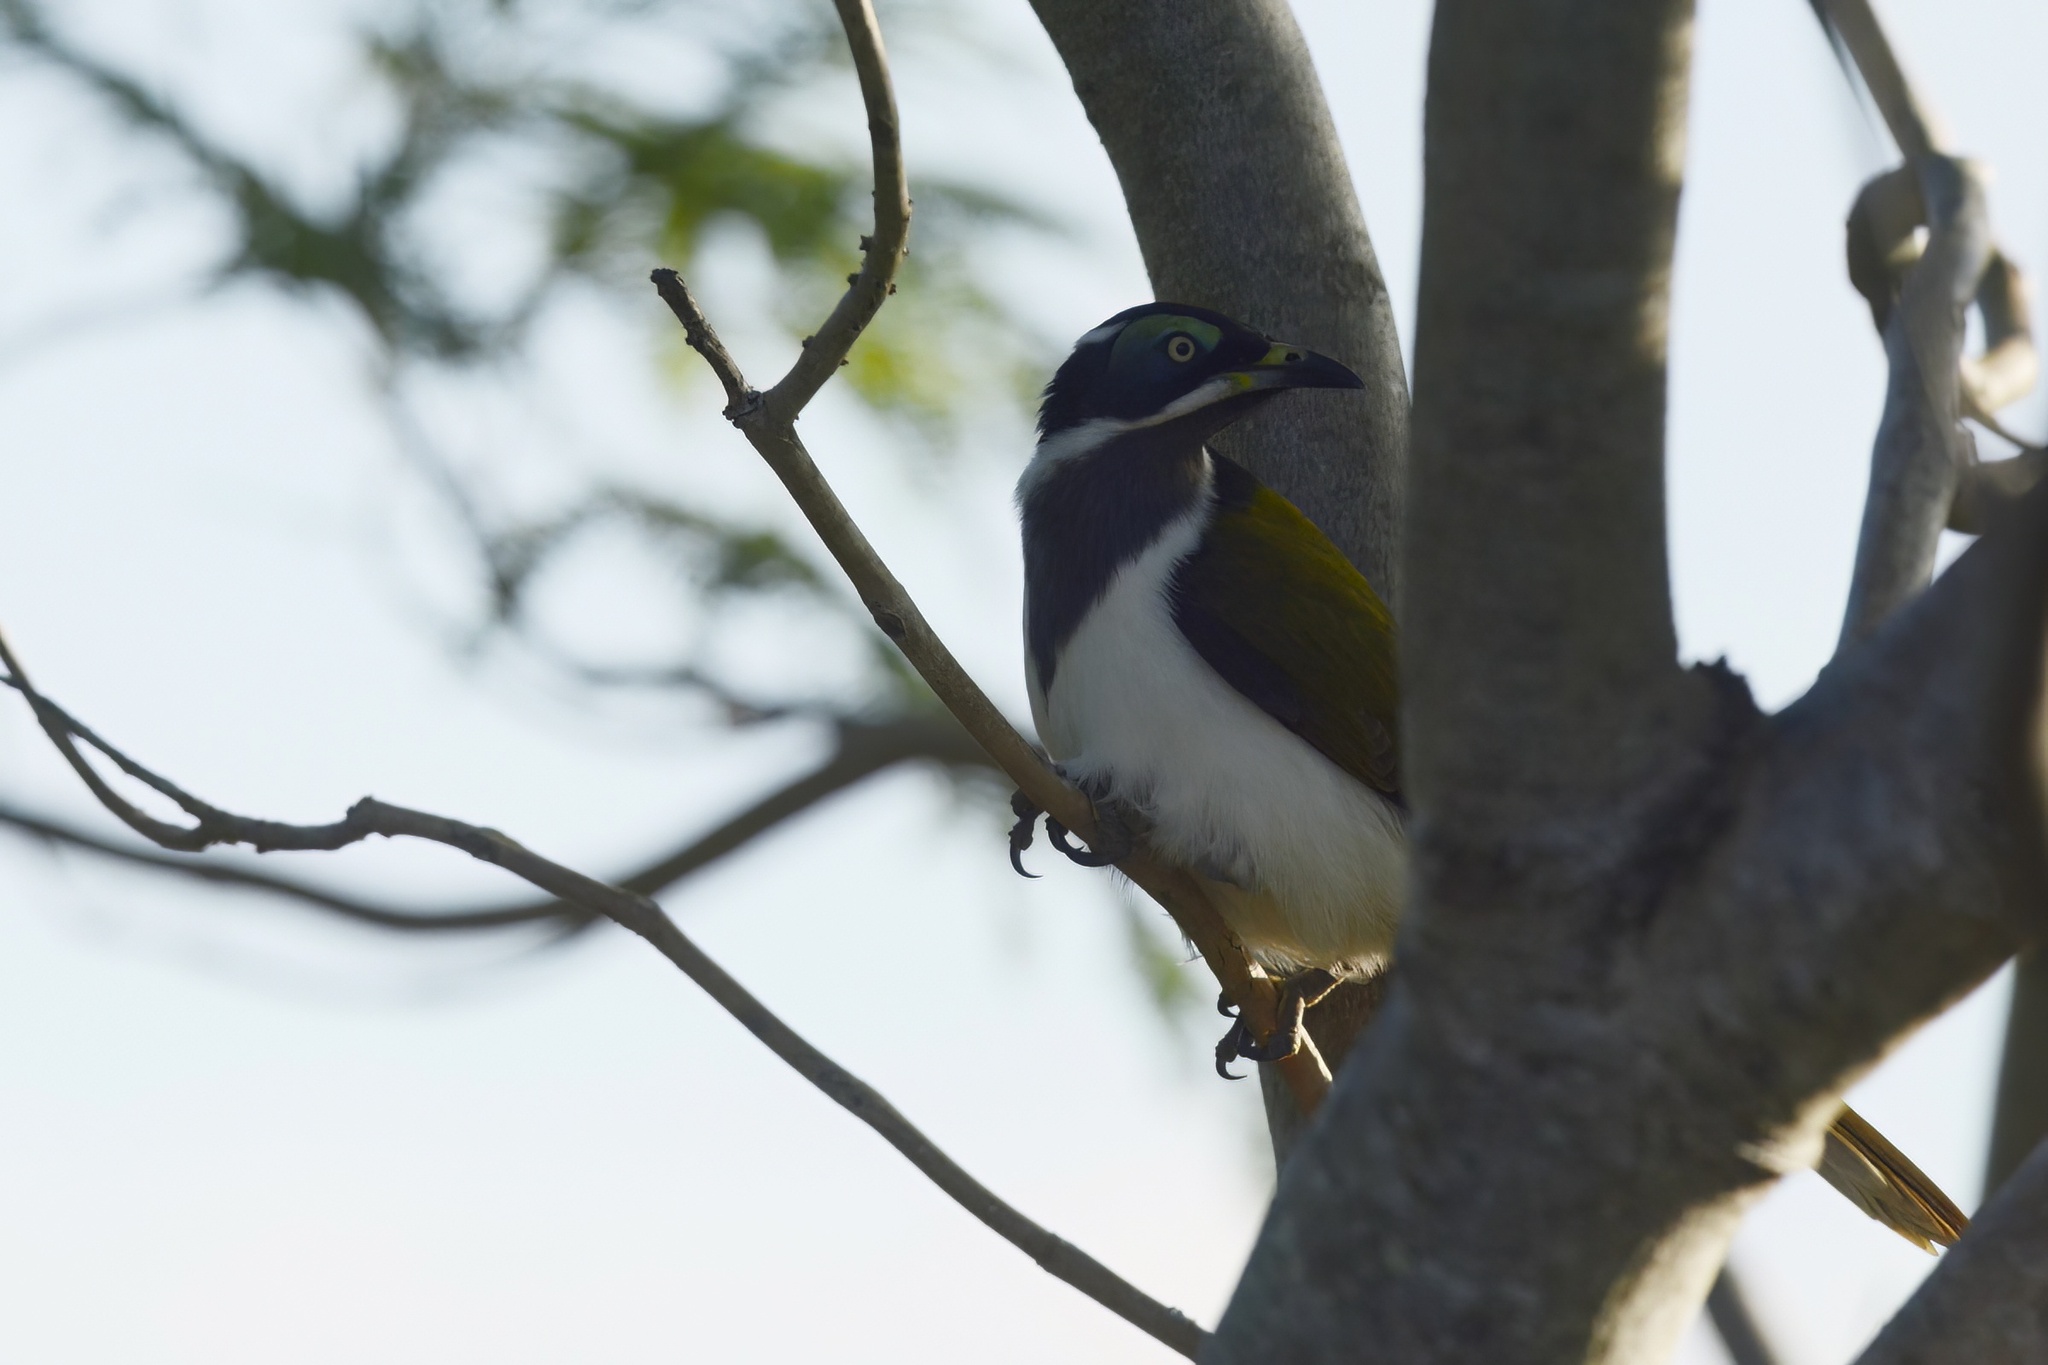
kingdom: Animalia
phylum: Chordata
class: Aves
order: Passeriformes
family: Meliphagidae
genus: Entomyzon
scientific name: Entomyzon cyanotis
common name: Blue-faced honeyeater
